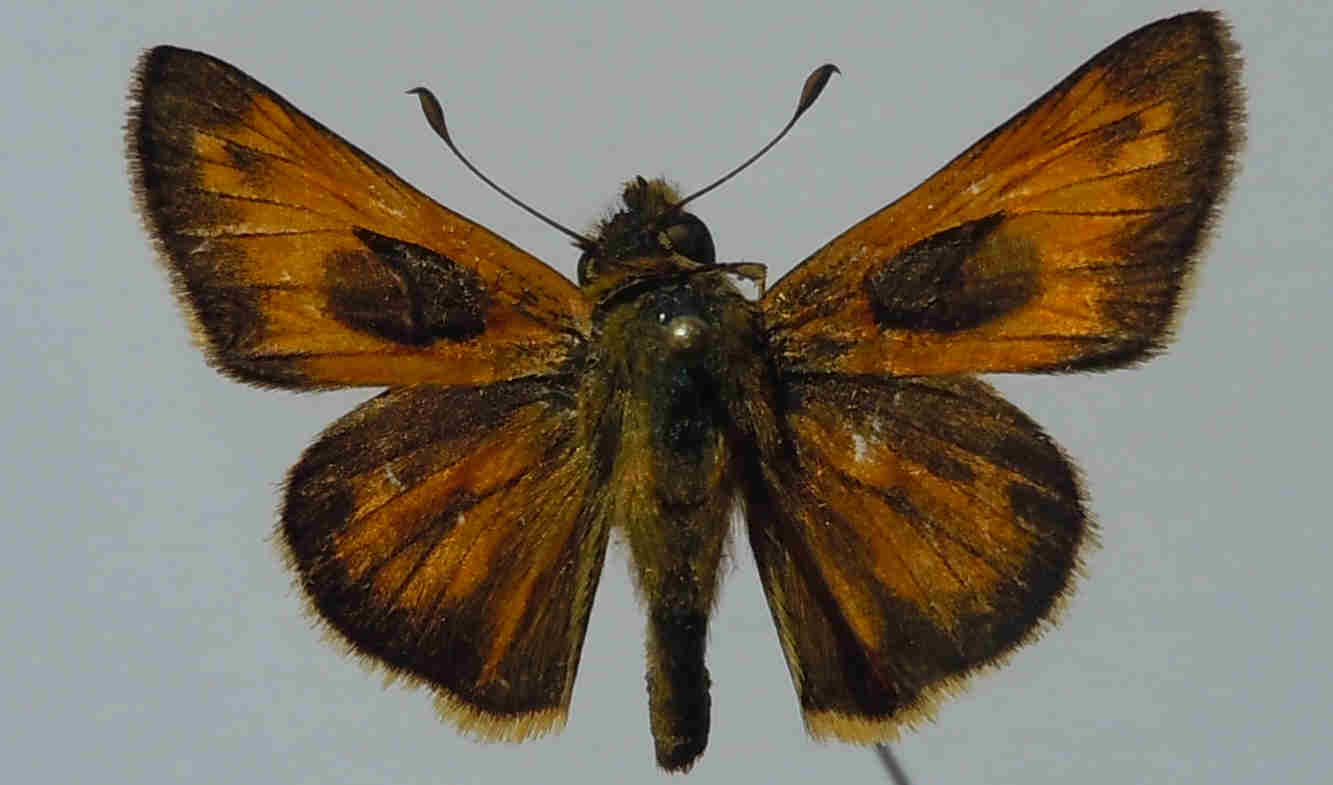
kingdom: Animalia
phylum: Arthropoda
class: Insecta
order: Lepidoptera
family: Hesperiidae
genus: Atalopedes
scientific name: Atalopedes campestris
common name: Sachem
